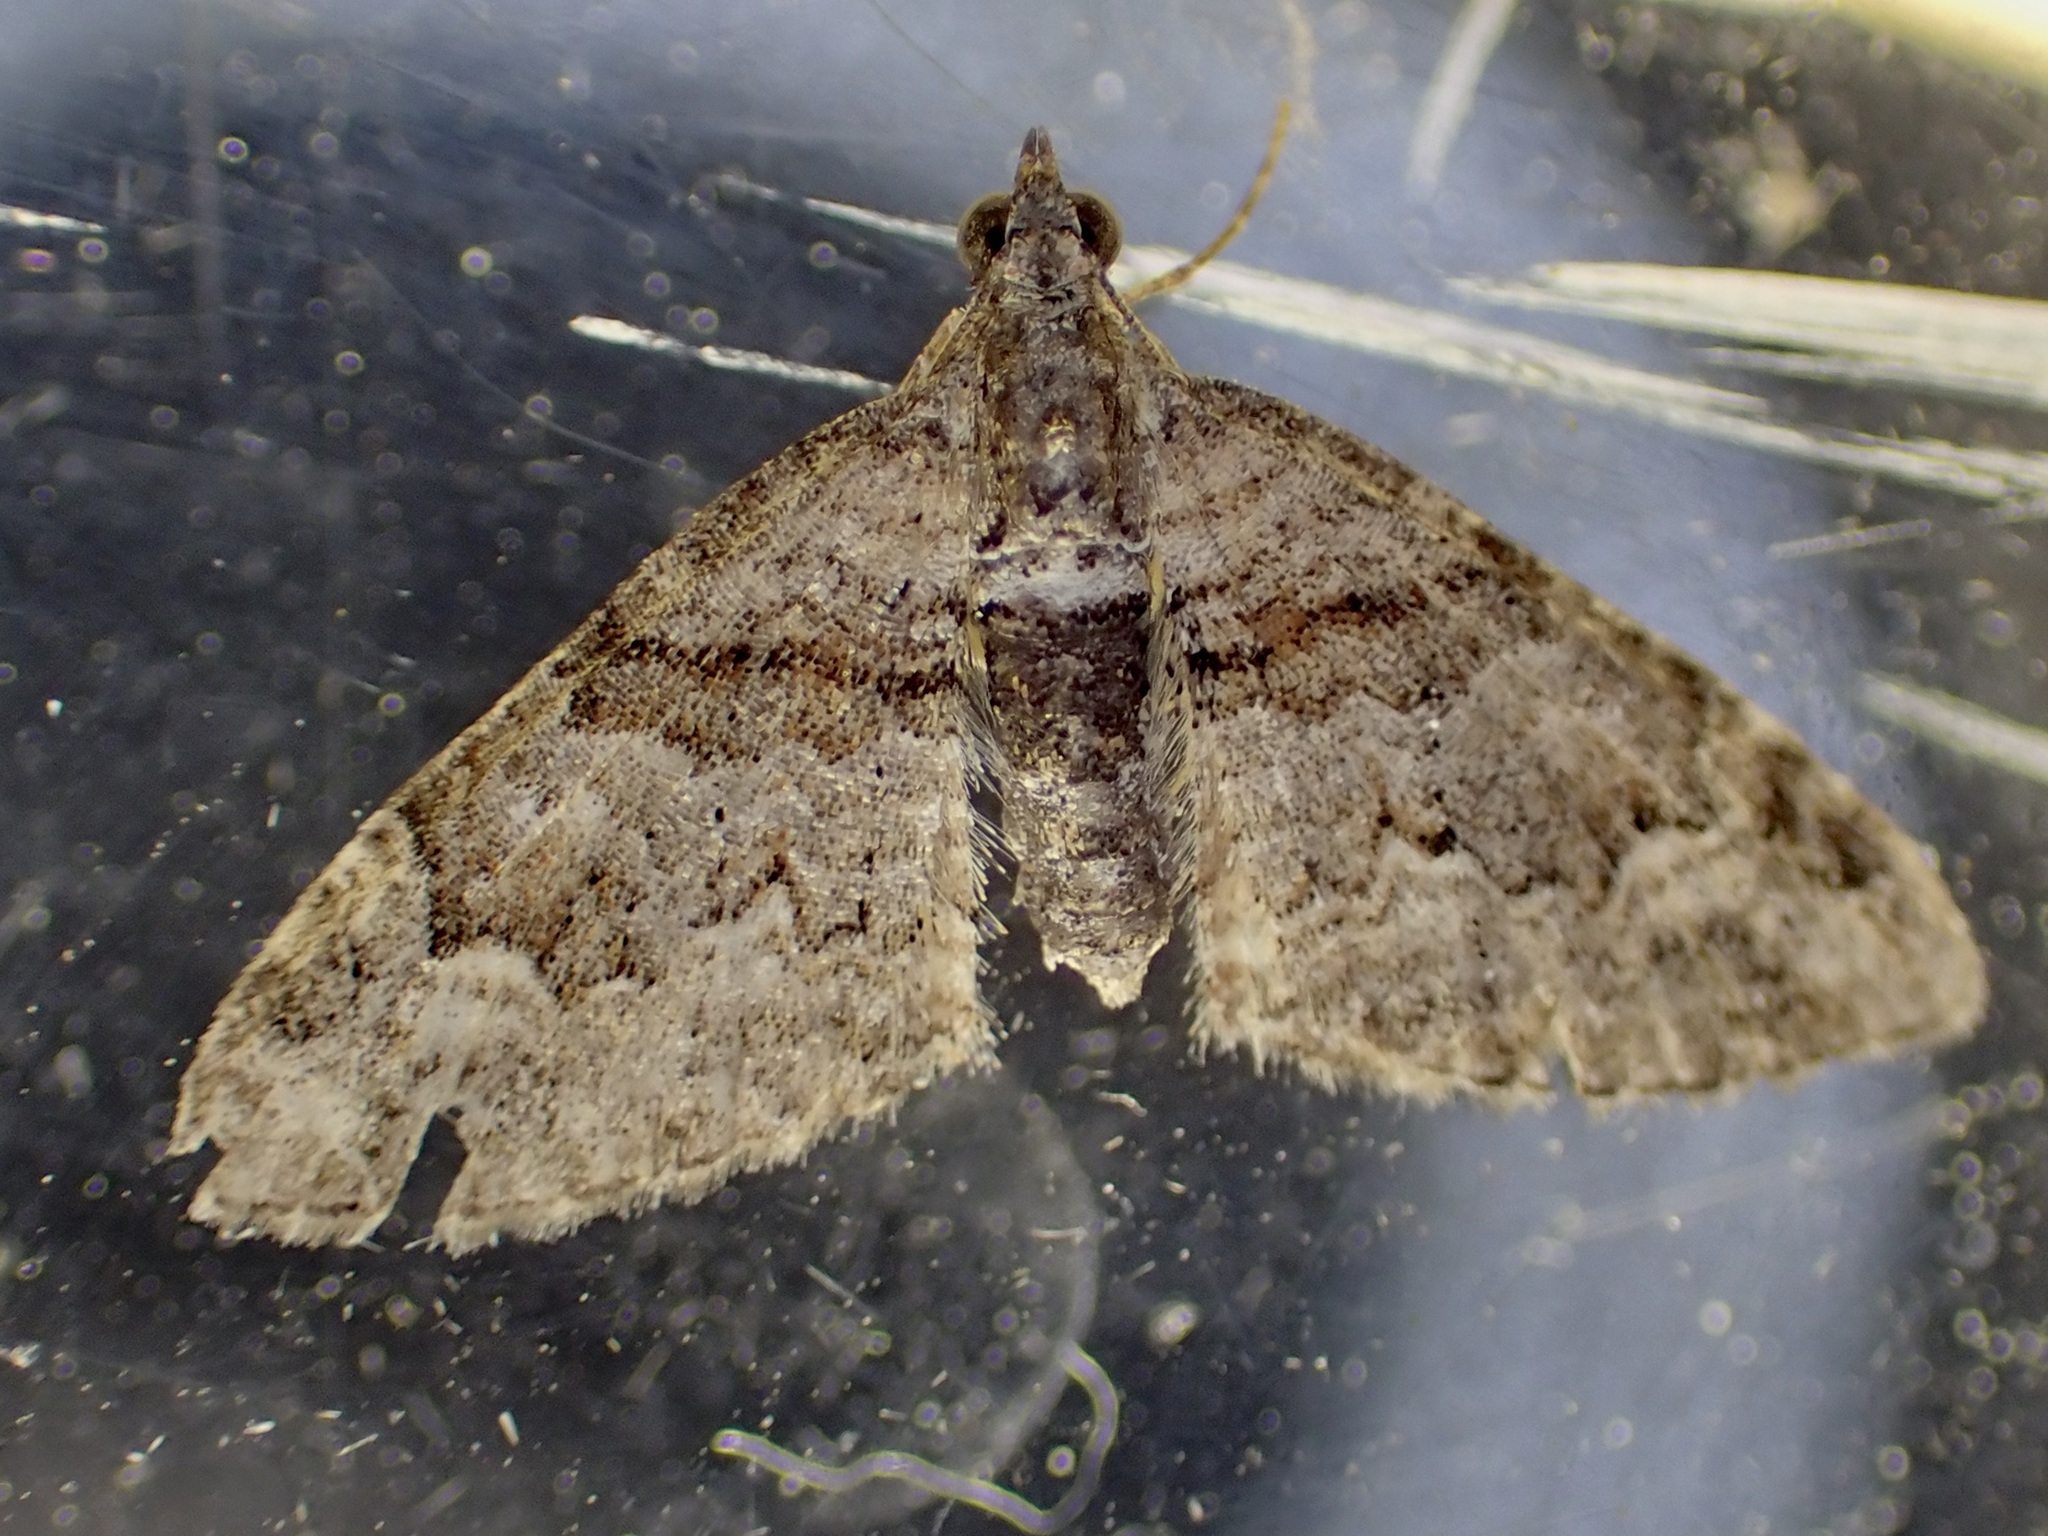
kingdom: Animalia
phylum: Arthropoda
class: Insecta
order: Lepidoptera
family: Geometridae
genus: Phrissogonus
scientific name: Phrissogonus laticostata
